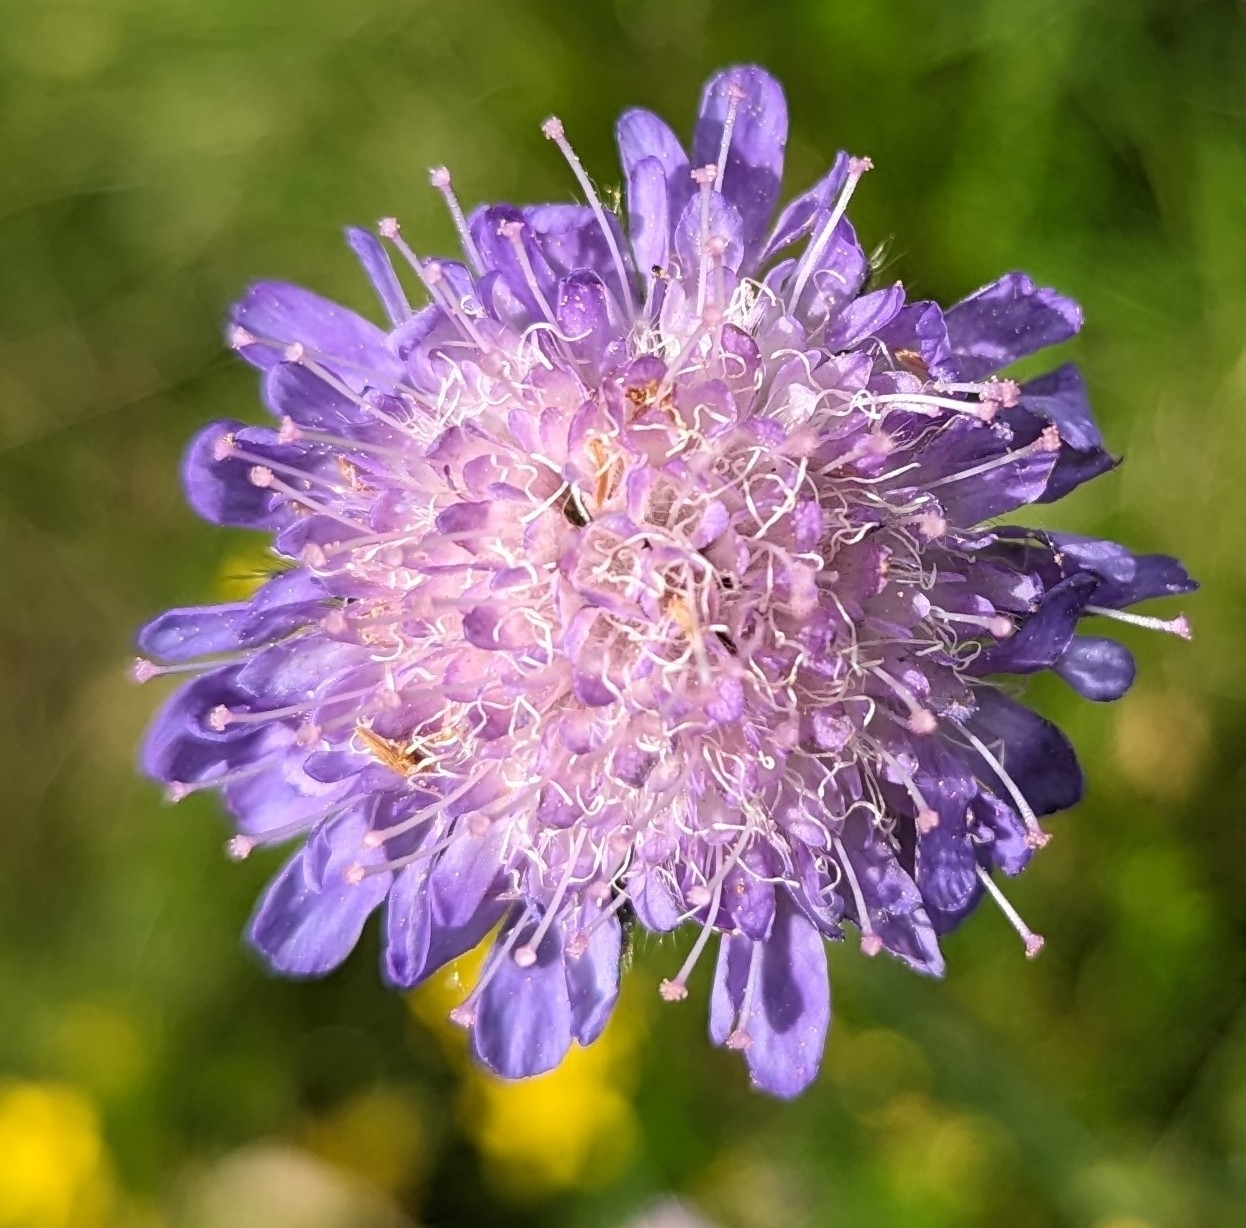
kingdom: Plantae
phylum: Tracheophyta
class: Magnoliopsida
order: Dipsacales
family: Caprifoliaceae
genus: Knautia
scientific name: Knautia arvensis
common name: Field scabiosa
